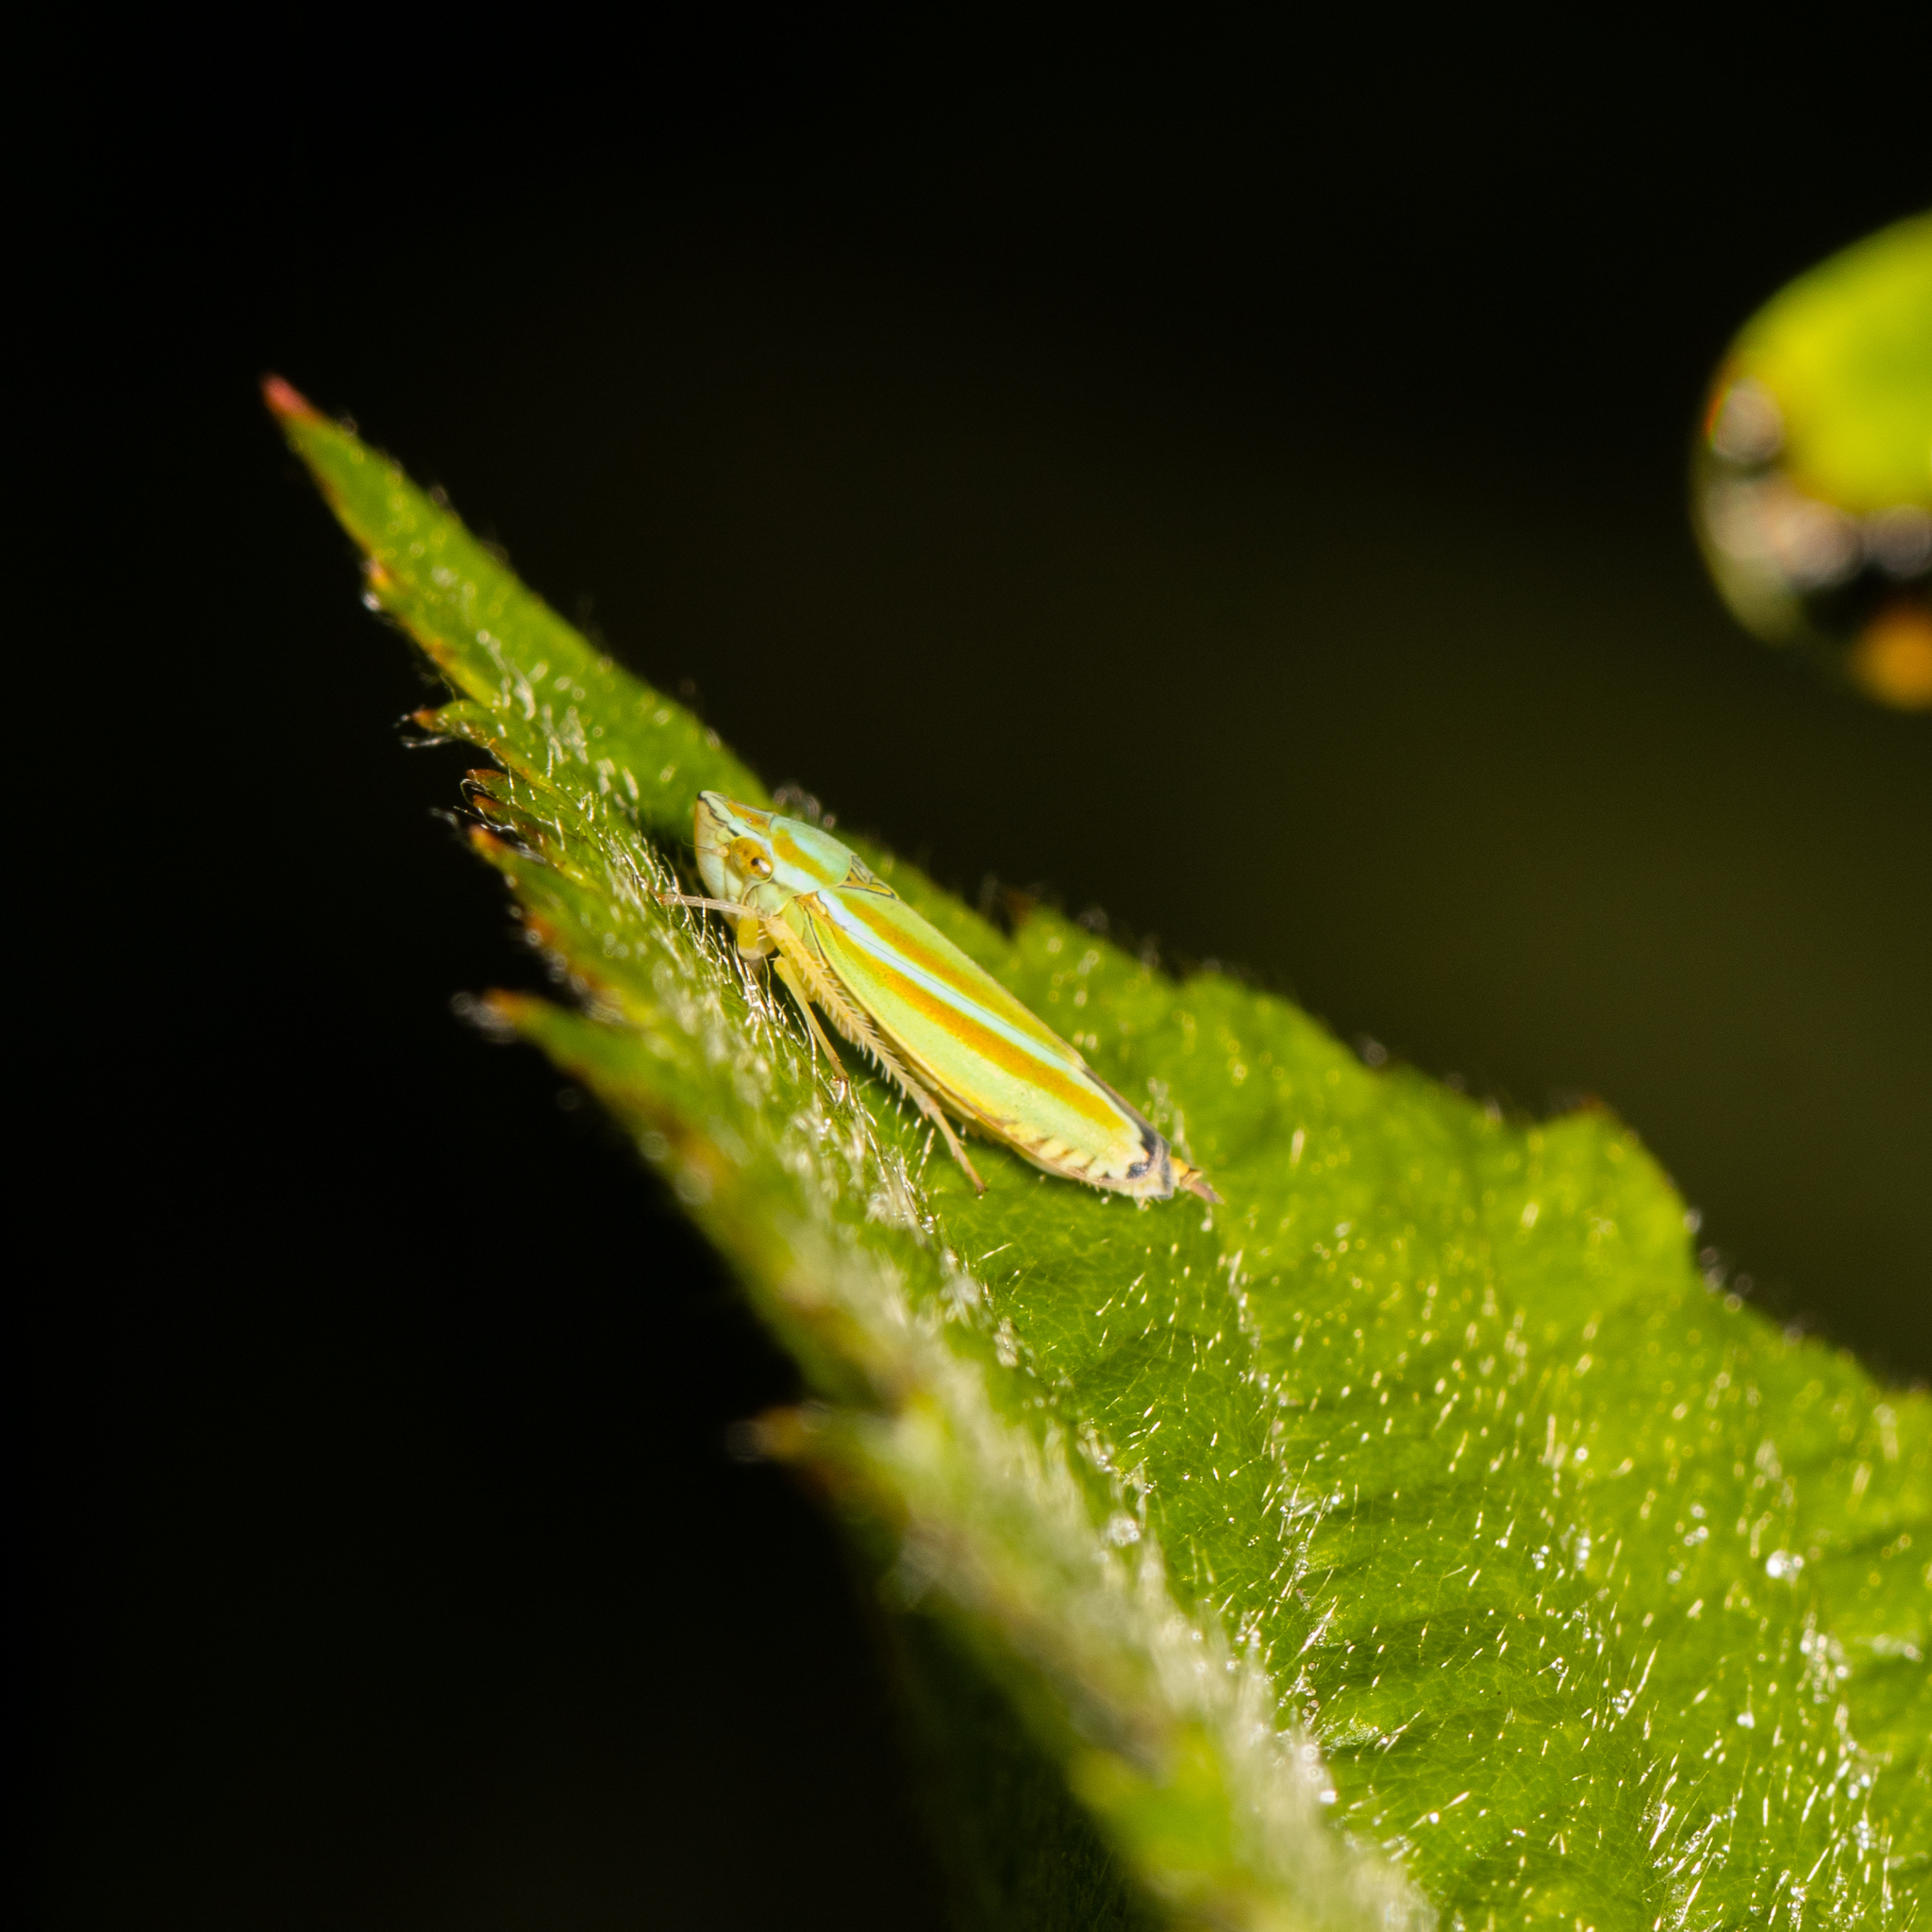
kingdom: Animalia
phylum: Arthropoda
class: Insecta
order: Hemiptera
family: Cicadellidae
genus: Graphocephala
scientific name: Graphocephala versuta
